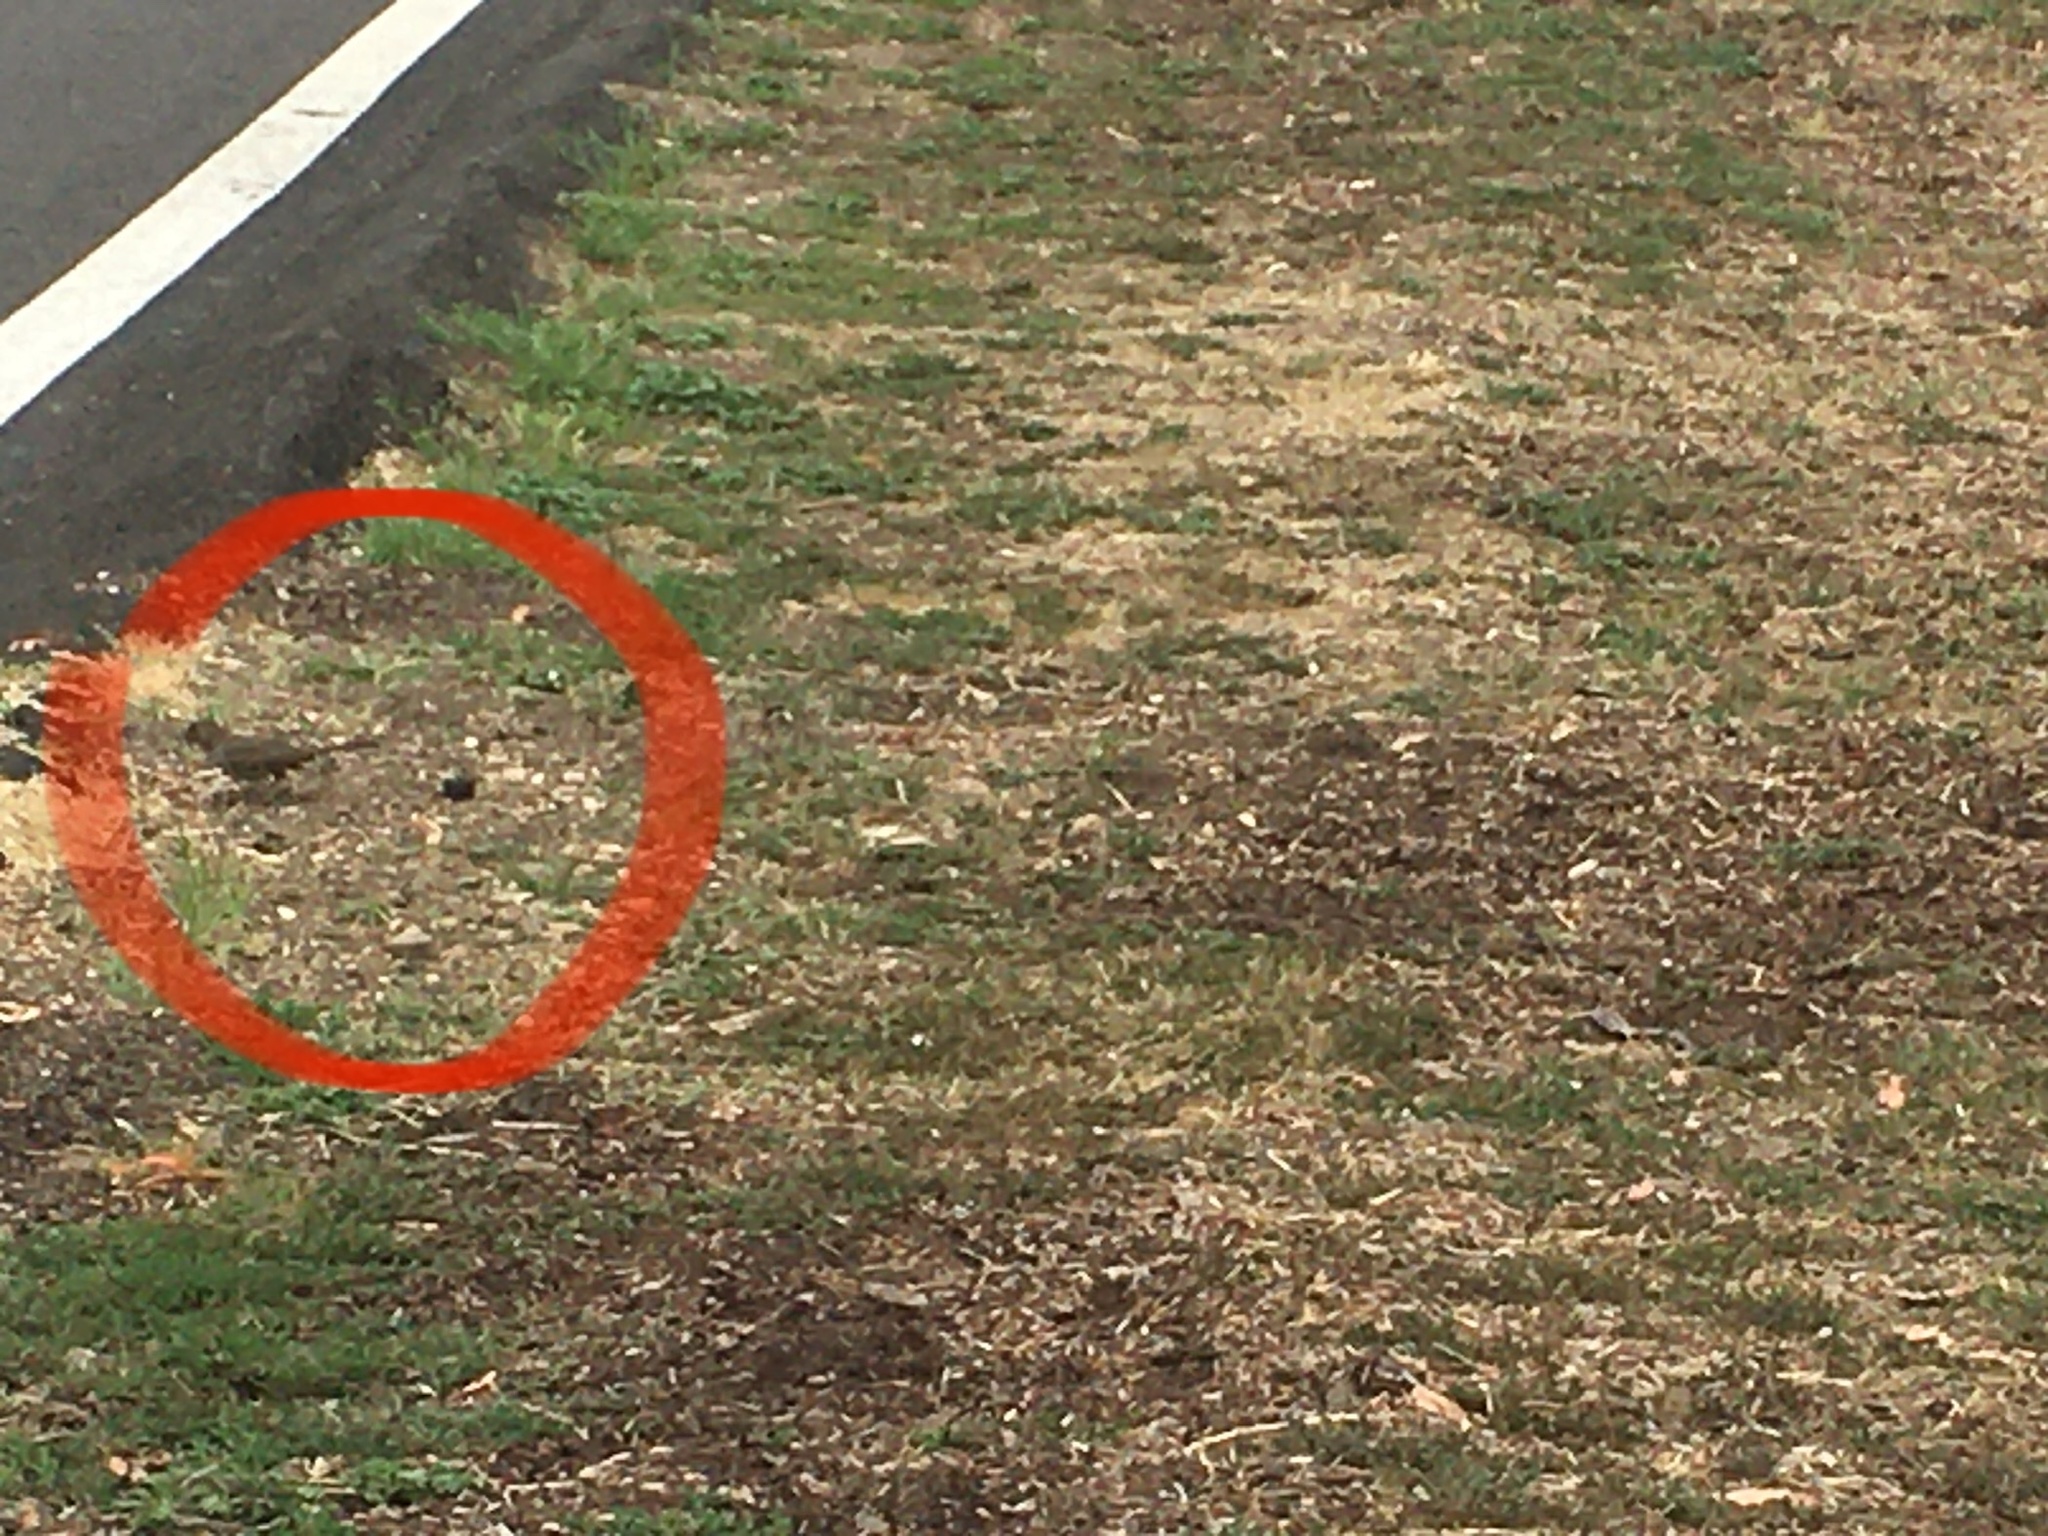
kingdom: Animalia
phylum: Chordata
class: Aves
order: Passeriformes
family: Passerellidae
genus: Melozone
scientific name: Melozone crissalis
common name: California towhee
